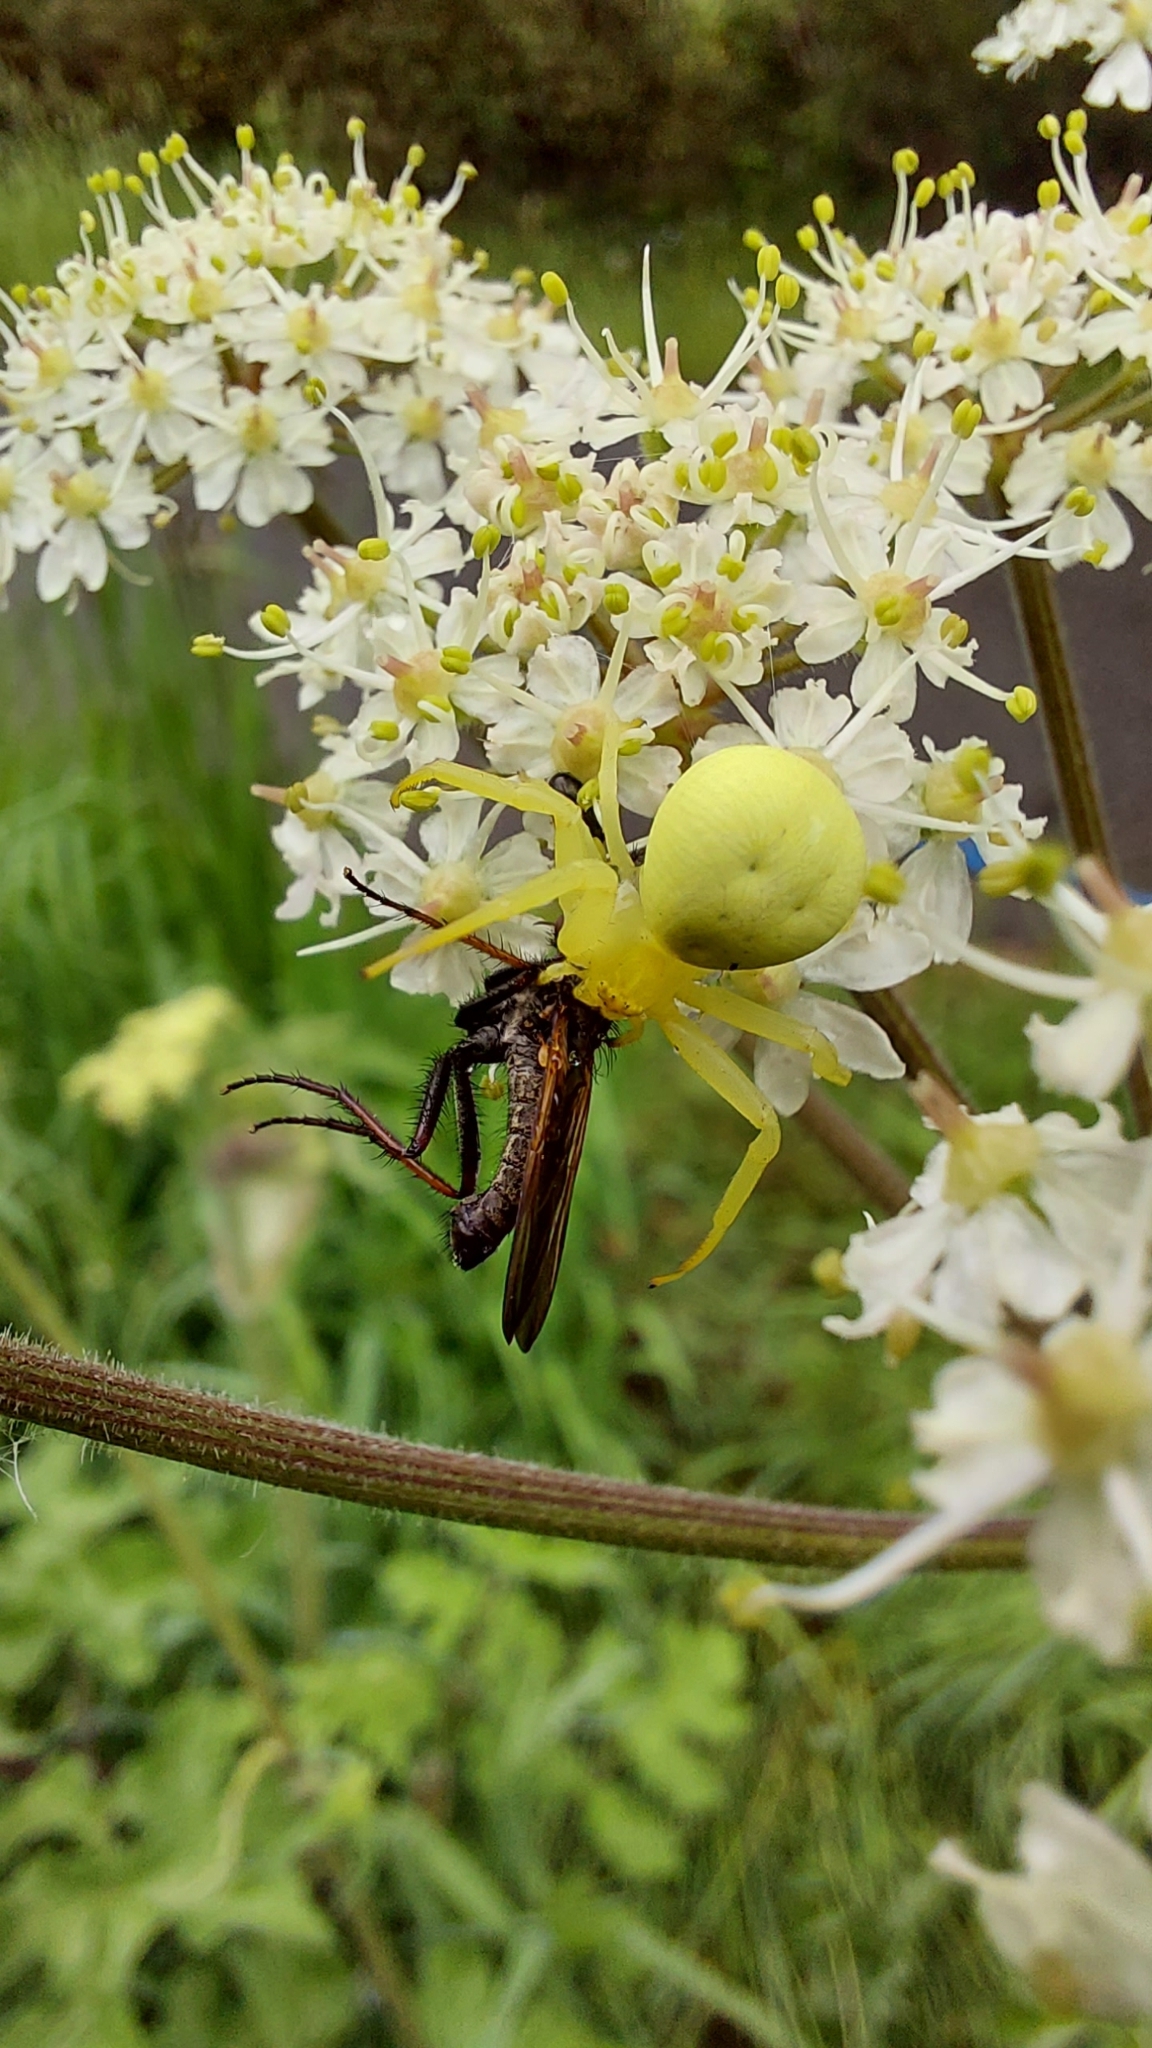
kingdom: Animalia
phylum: Arthropoda
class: Arachnida
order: Araneae
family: Thomisidae
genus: Misumena
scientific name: Misumena vatia
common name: Goldenrod crab spider
